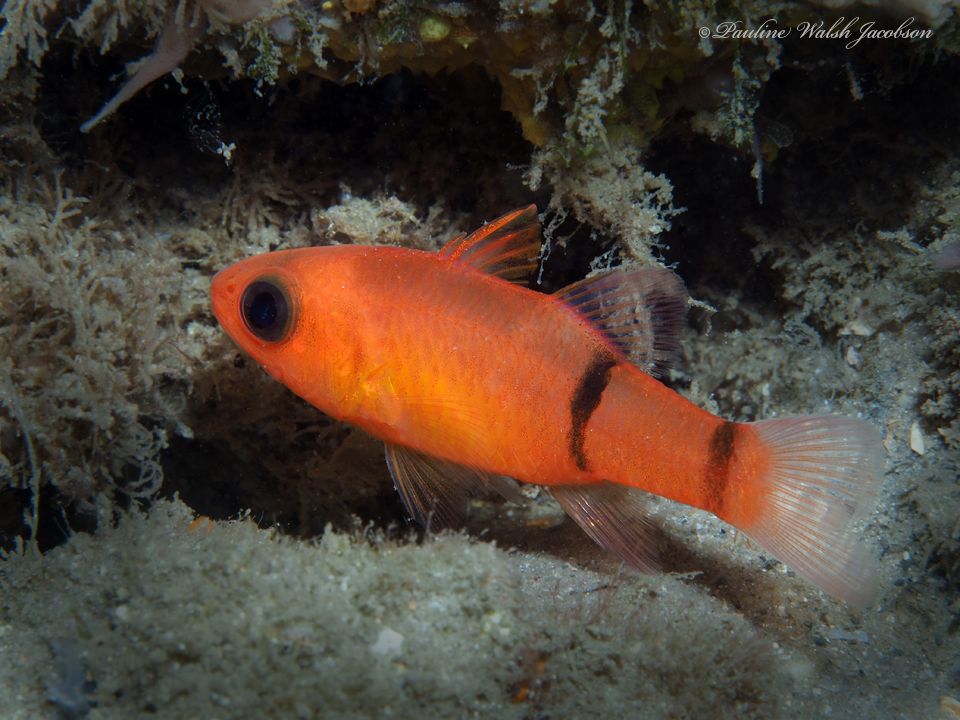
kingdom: Animalia
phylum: Chordata
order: Perciformes
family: Apogonidae
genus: Apogon
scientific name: Apogon binotatus
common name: Barred cardinalfish
